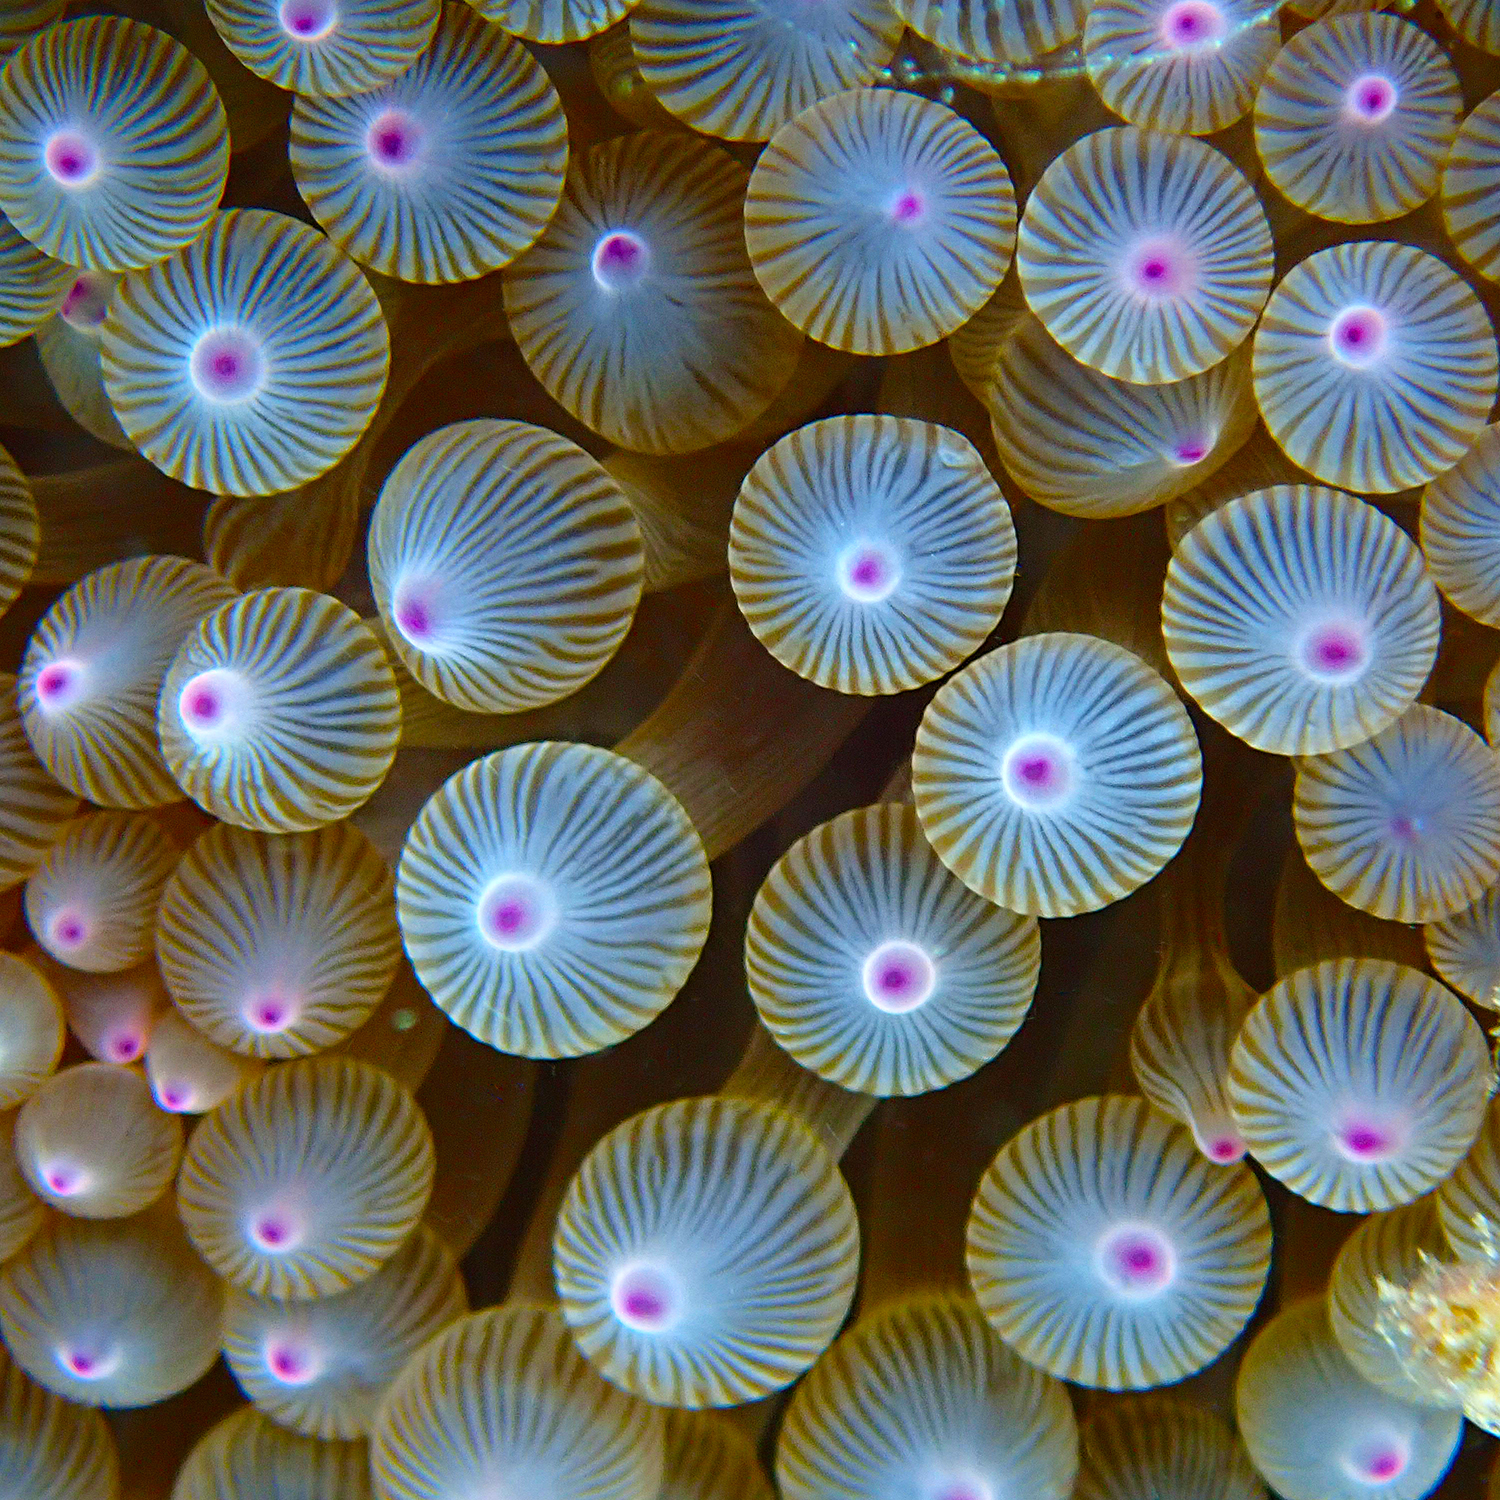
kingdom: Animalia
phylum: Cnidaria
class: Anthozoa
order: Actiniaria
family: Actiniidae
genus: Entacmaea
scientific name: Entacmaea quadricolor
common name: Bulb tentacle sea anemone
